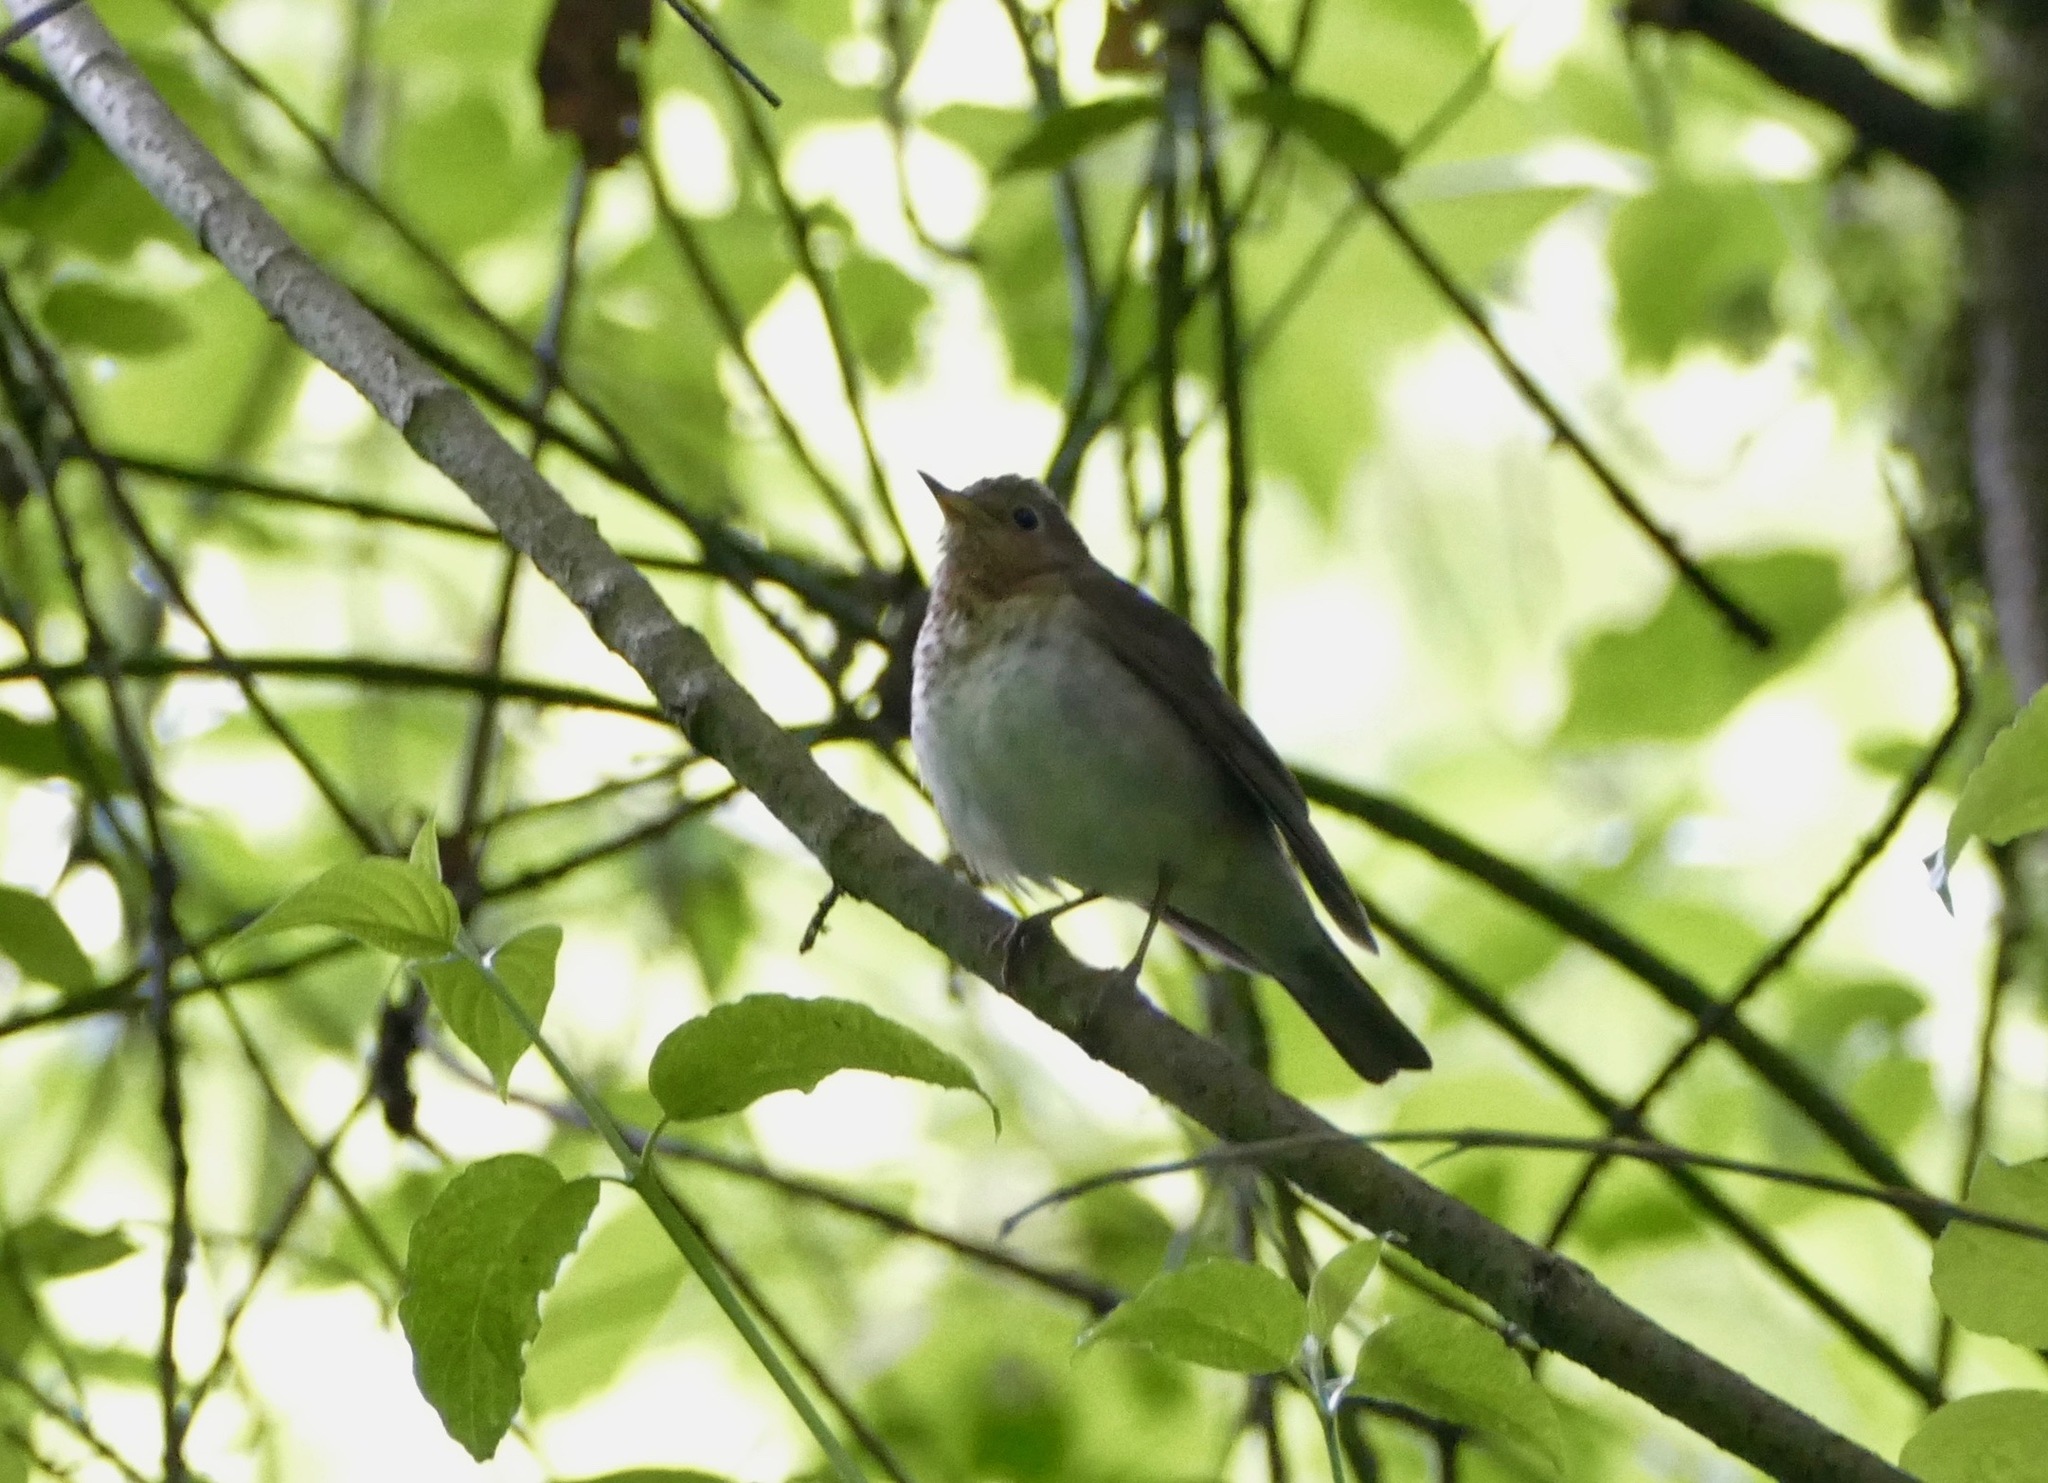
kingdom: Animalia
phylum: Chordata
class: Aves
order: Passeriformes
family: Turdidae
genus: Catharus
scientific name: Catharus ustulatus
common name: Swainson's thrush
